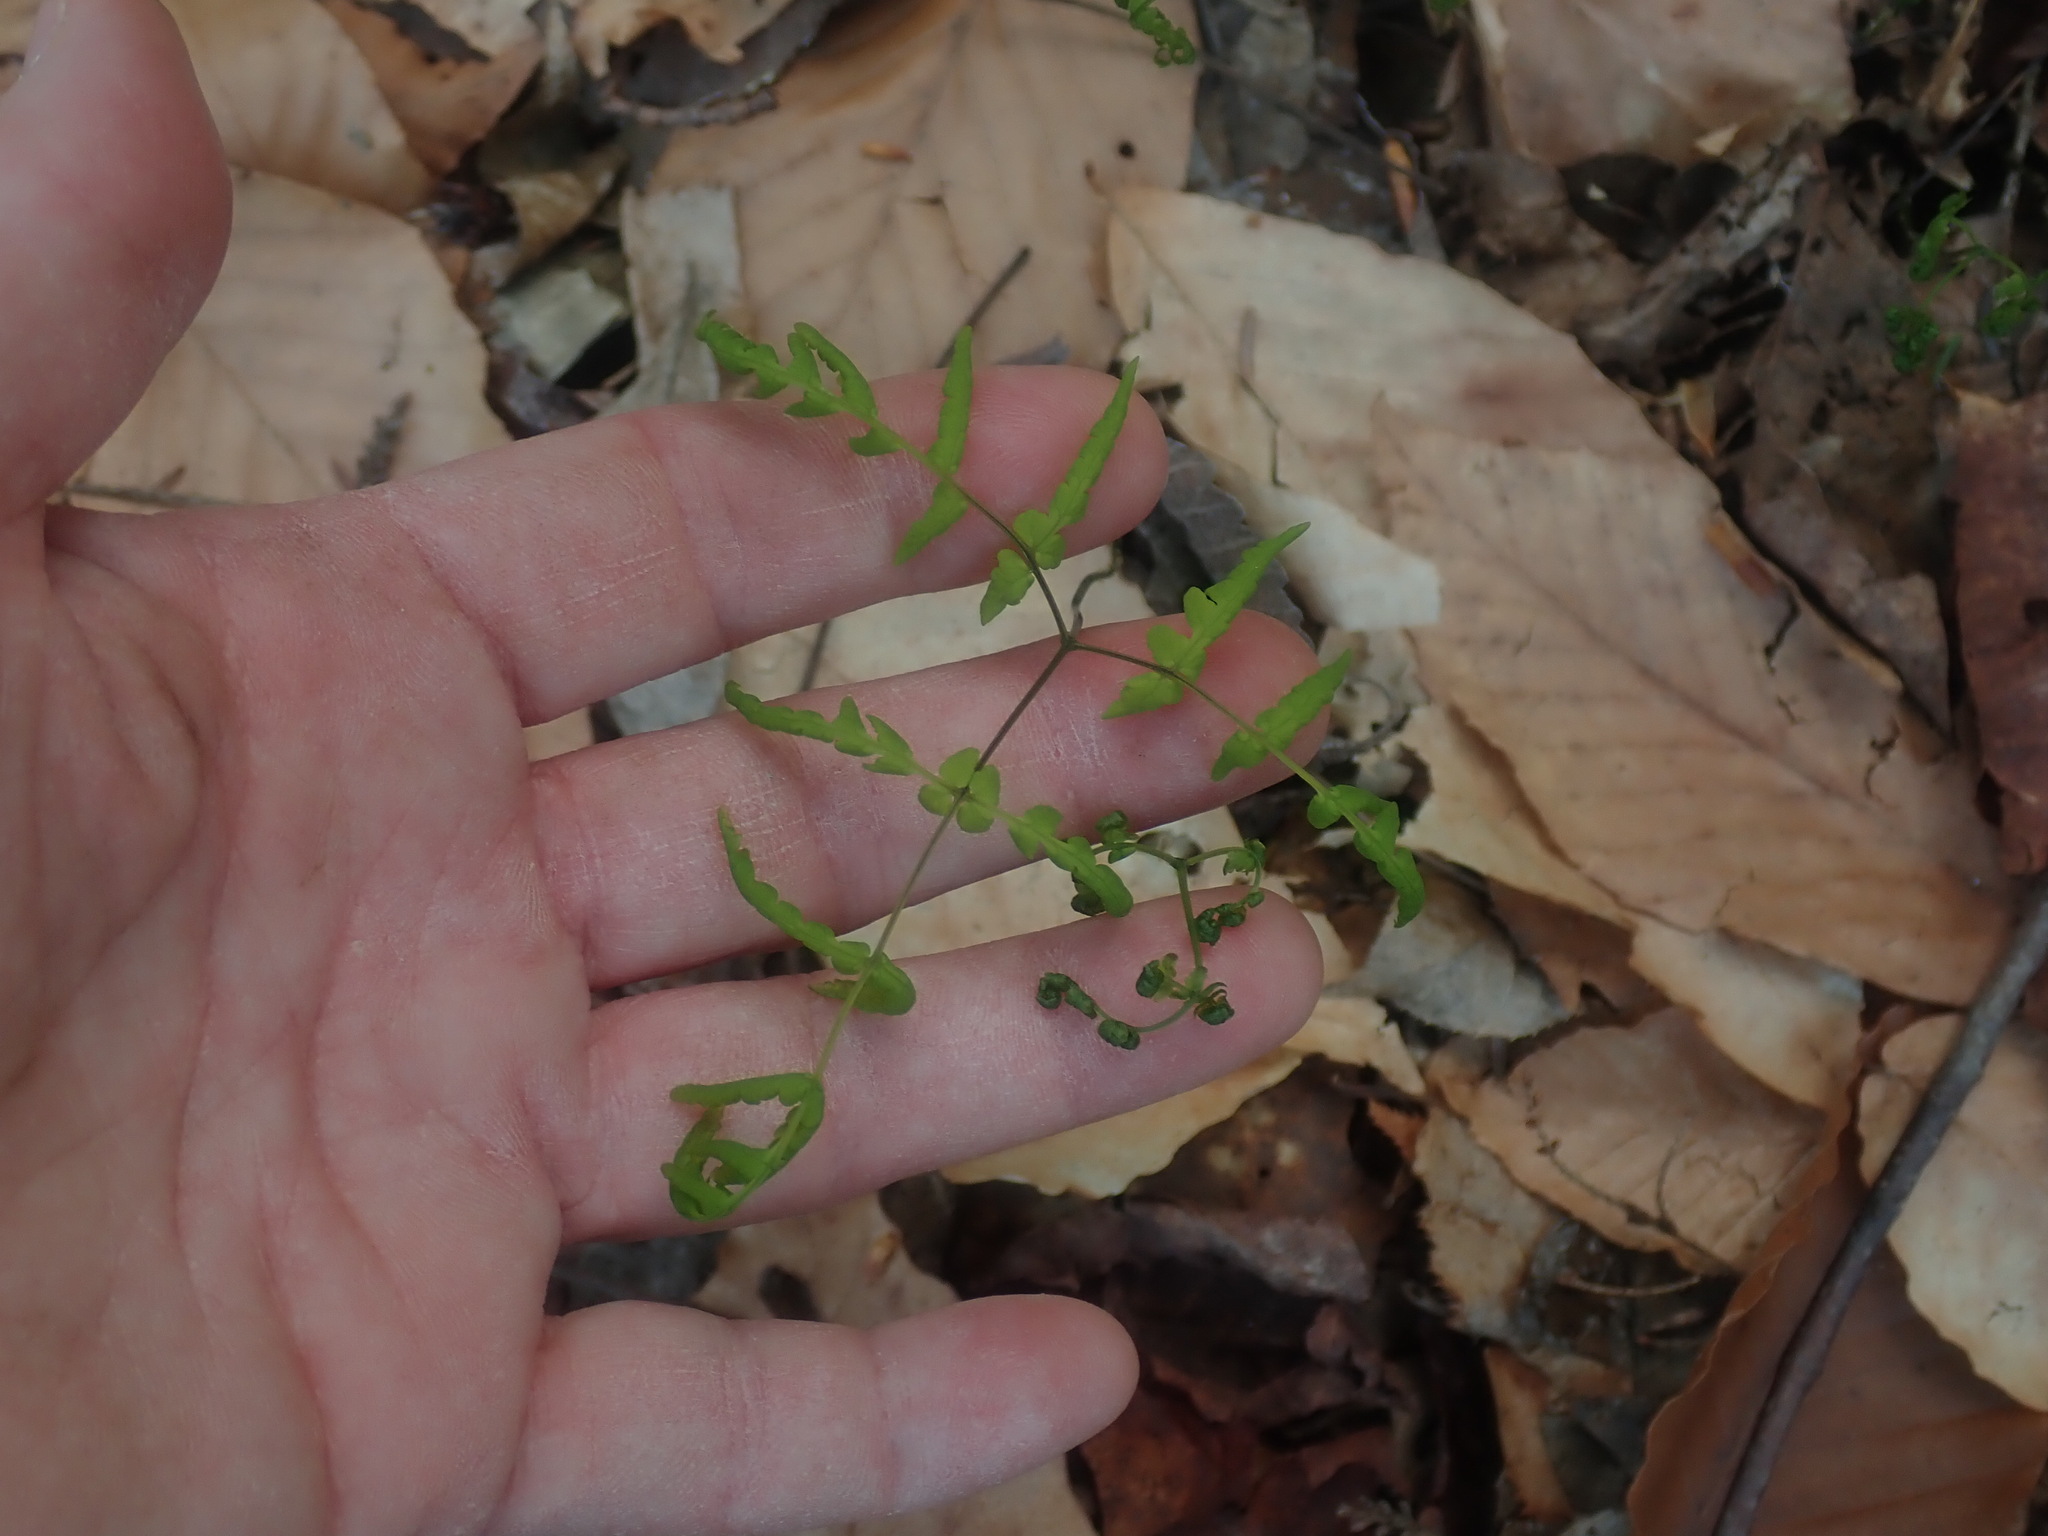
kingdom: Plantae
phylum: Tracheophyta
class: Polypodiopsida
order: Polypodiales
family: Cystopteridaceae
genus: Gymnocarpium
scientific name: Gymnocarpium dryopteris
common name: Oak fern
